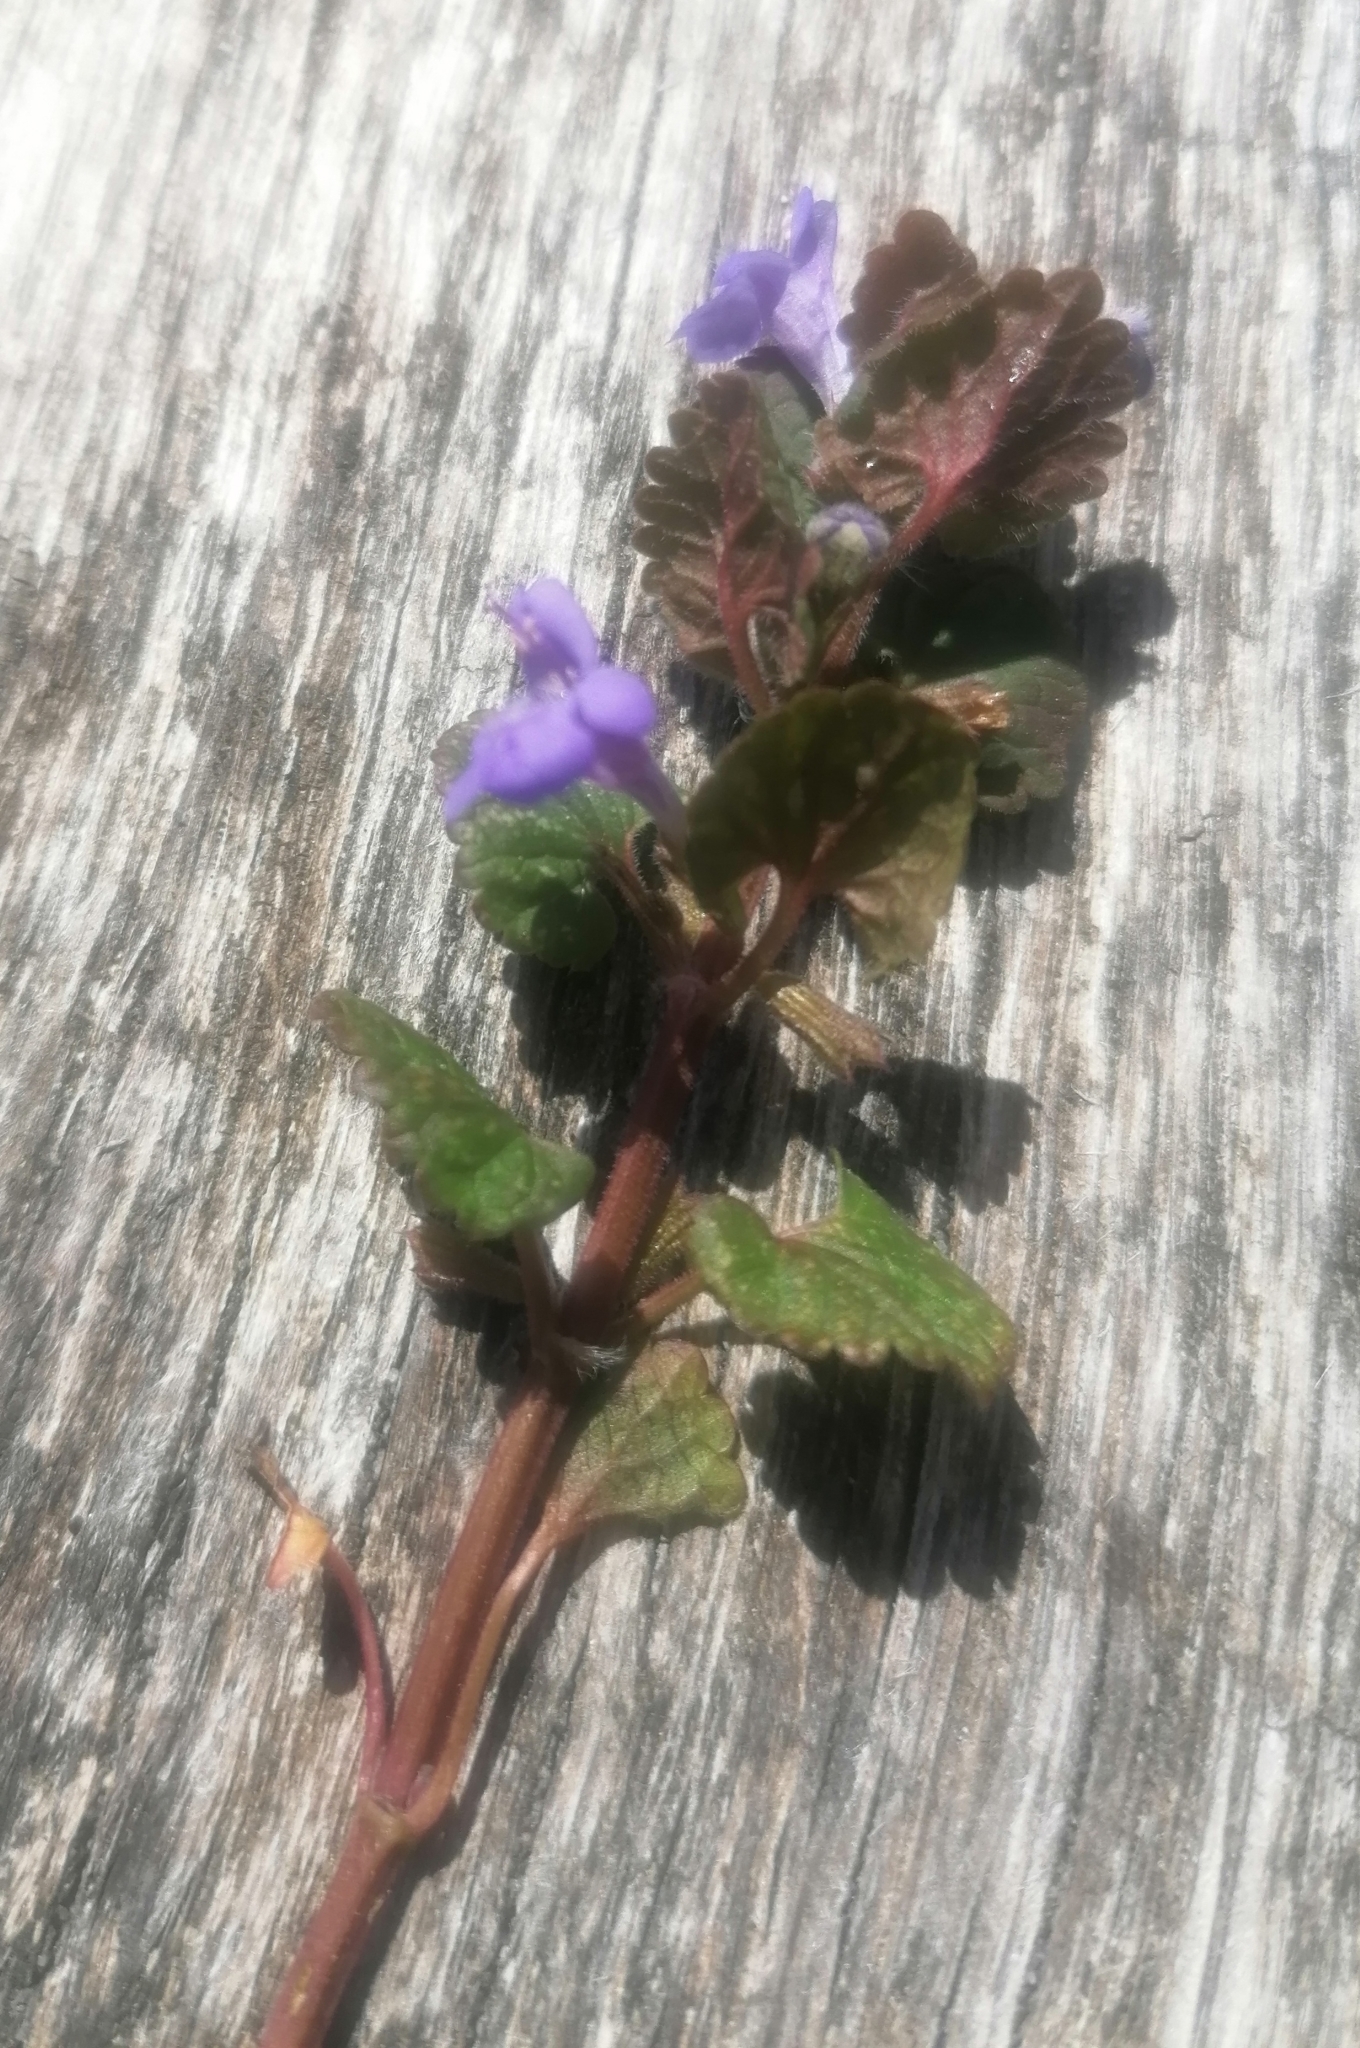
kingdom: Plantae
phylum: Tracheophyta
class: Magnoliopsida
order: Lamiales
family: Lamiaceae
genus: Glechoma
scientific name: Glechoma hederacea
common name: Ground ivy
